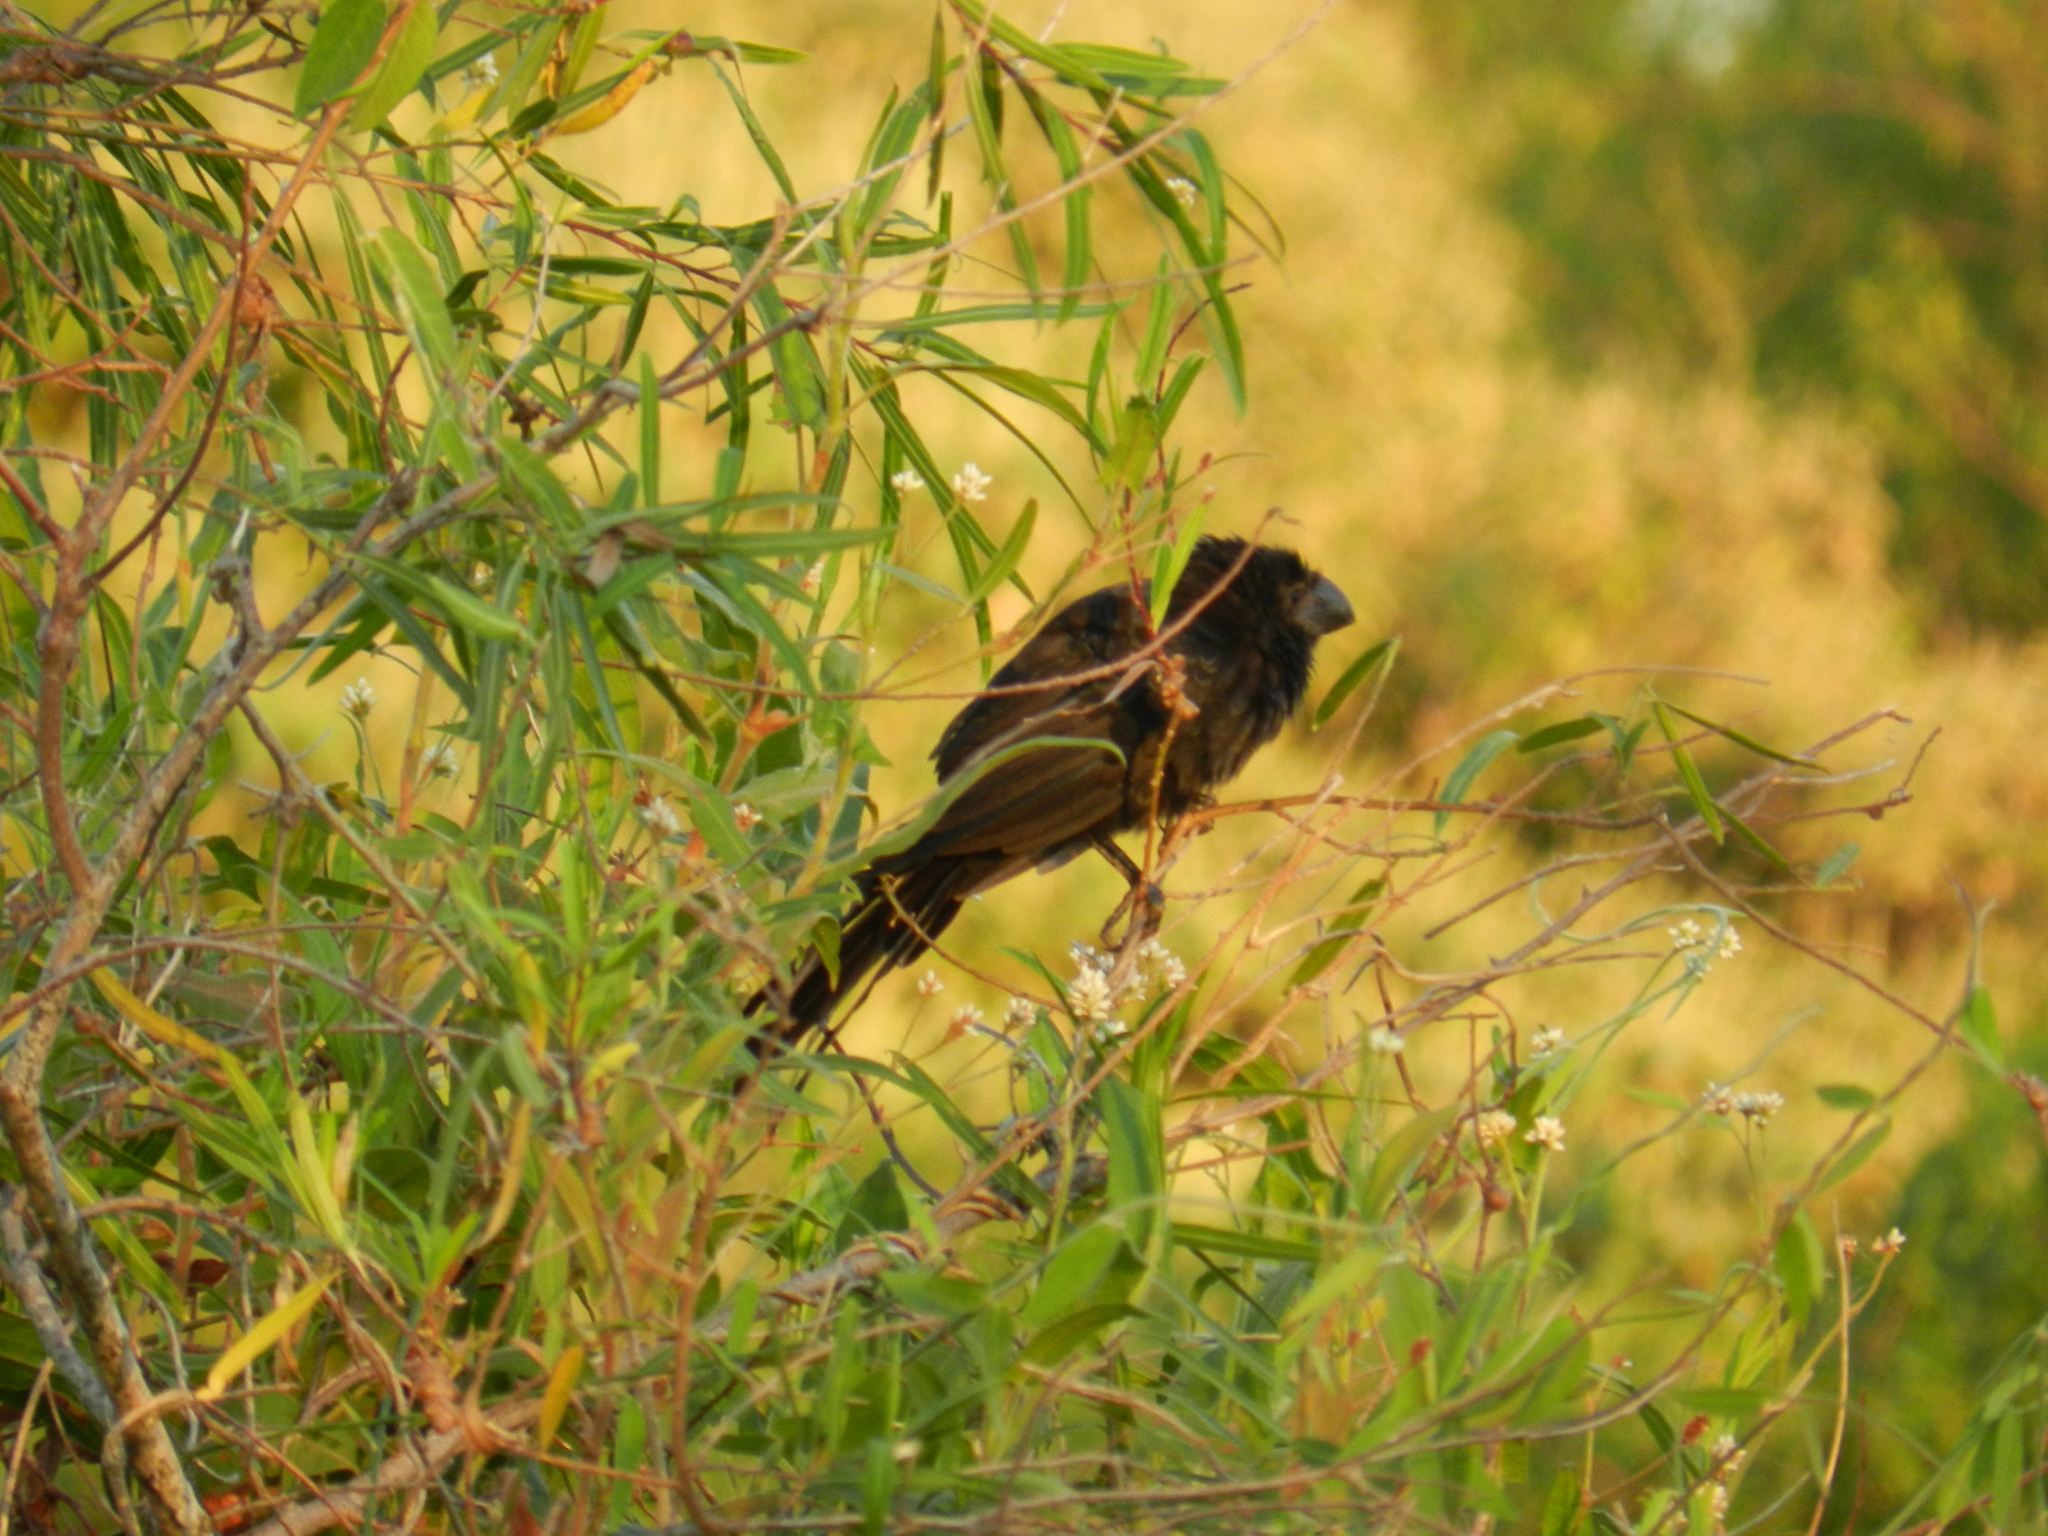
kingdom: Animalia
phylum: Chordata
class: Aves
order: Cuculiformes
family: Cuculidae
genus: Crotophaga
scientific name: Crotophaga ani
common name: Smooth-billed ani
